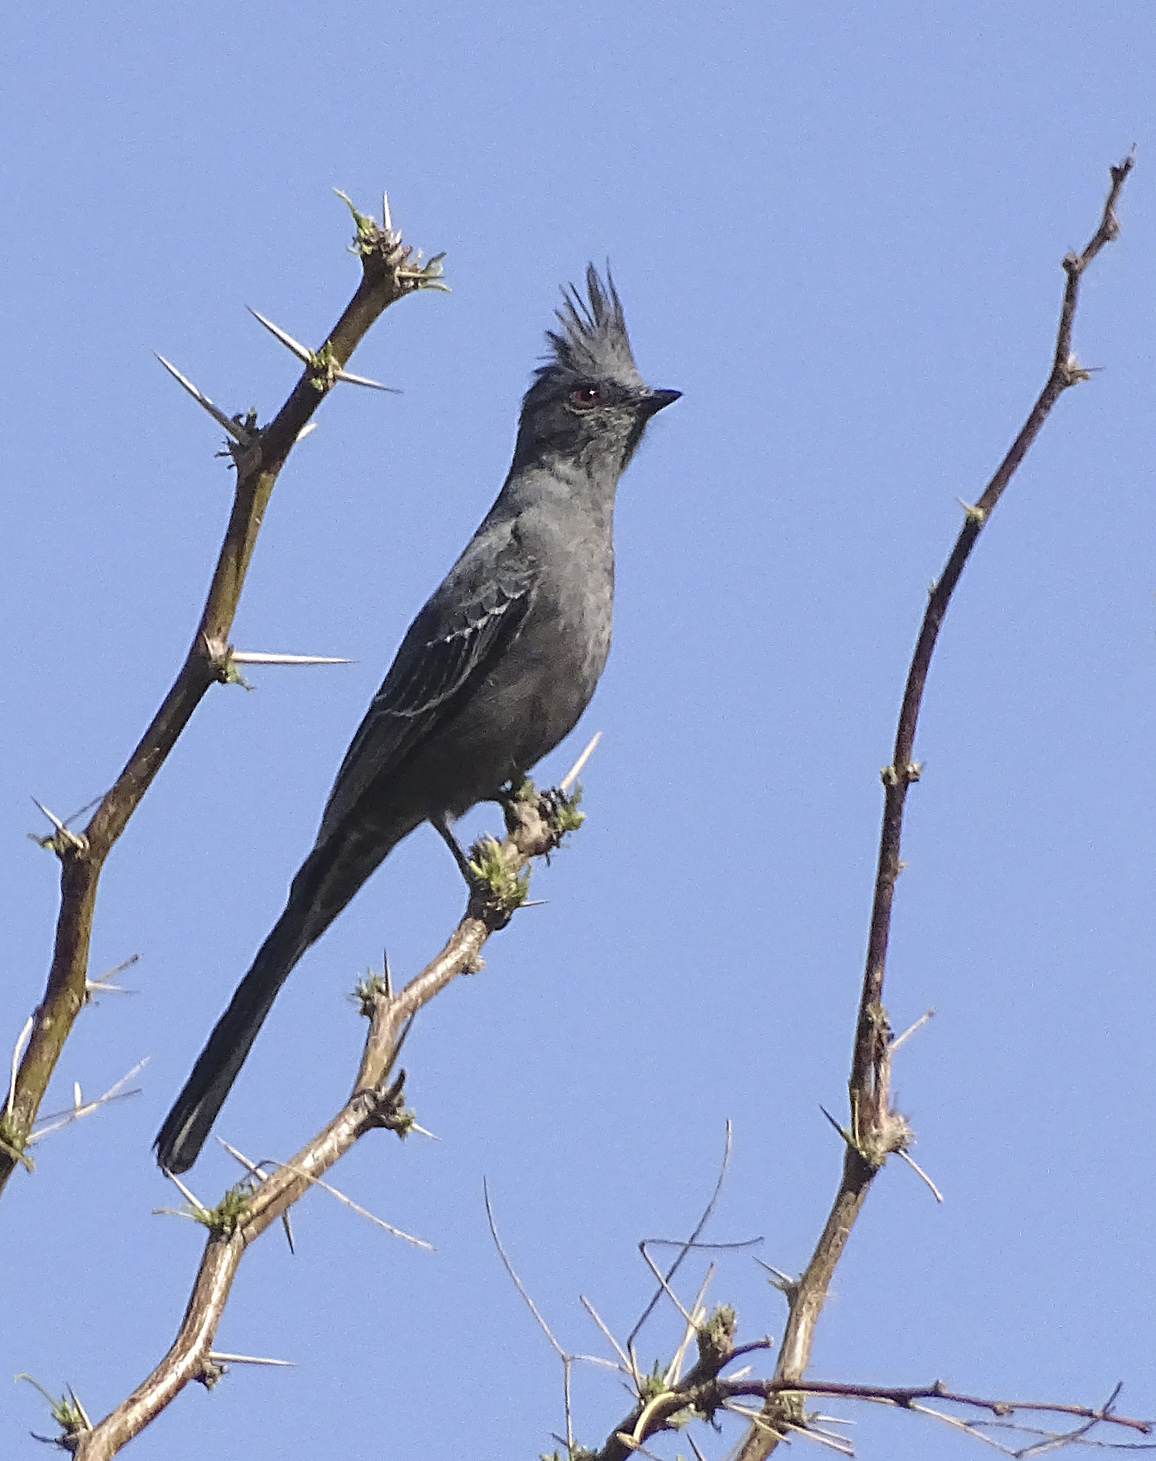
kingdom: Animalia
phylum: Chordata
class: Aves
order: Passeriformes
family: Ptilogonatidae
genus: Phainopepla
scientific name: Phainopepla nitens
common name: Phainopepla
